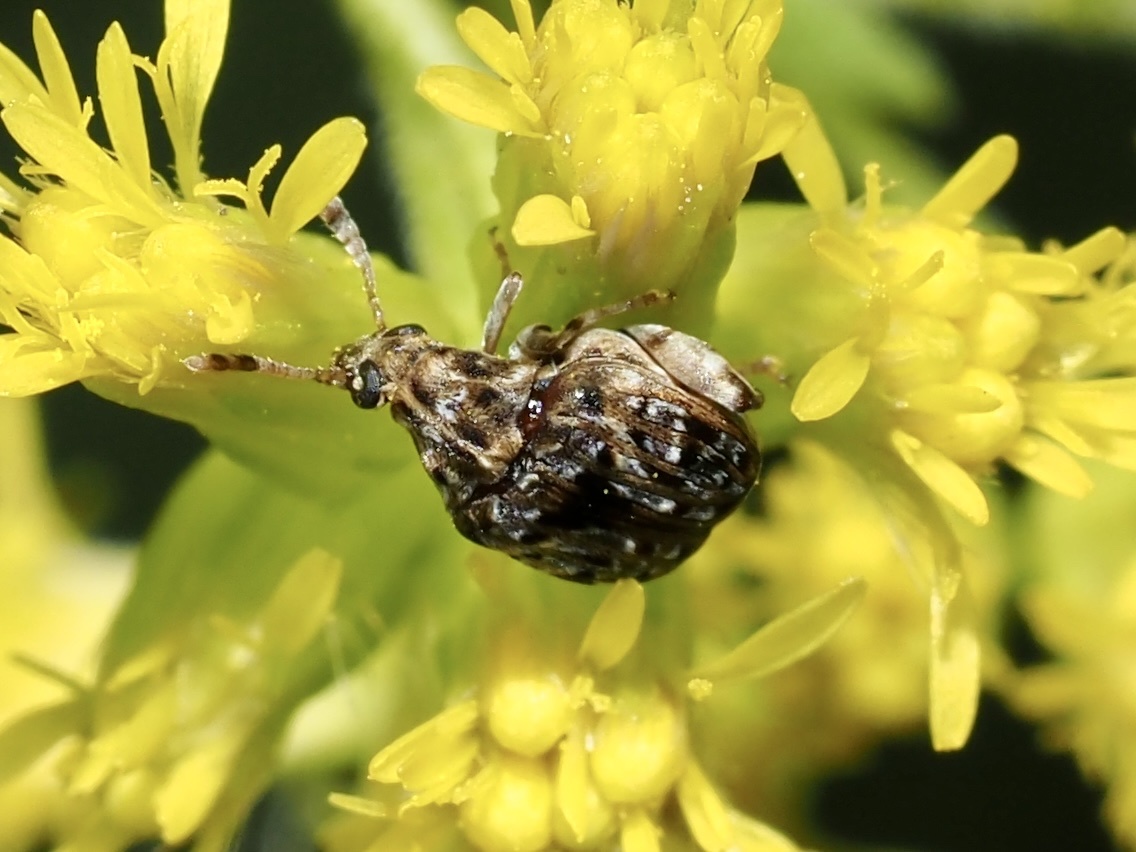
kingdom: Animalia
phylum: Arthropoda
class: Insecta
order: Coleoptera
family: Chrysomelidae
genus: Gibbobruchus
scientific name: Gibbobruchus mimus
